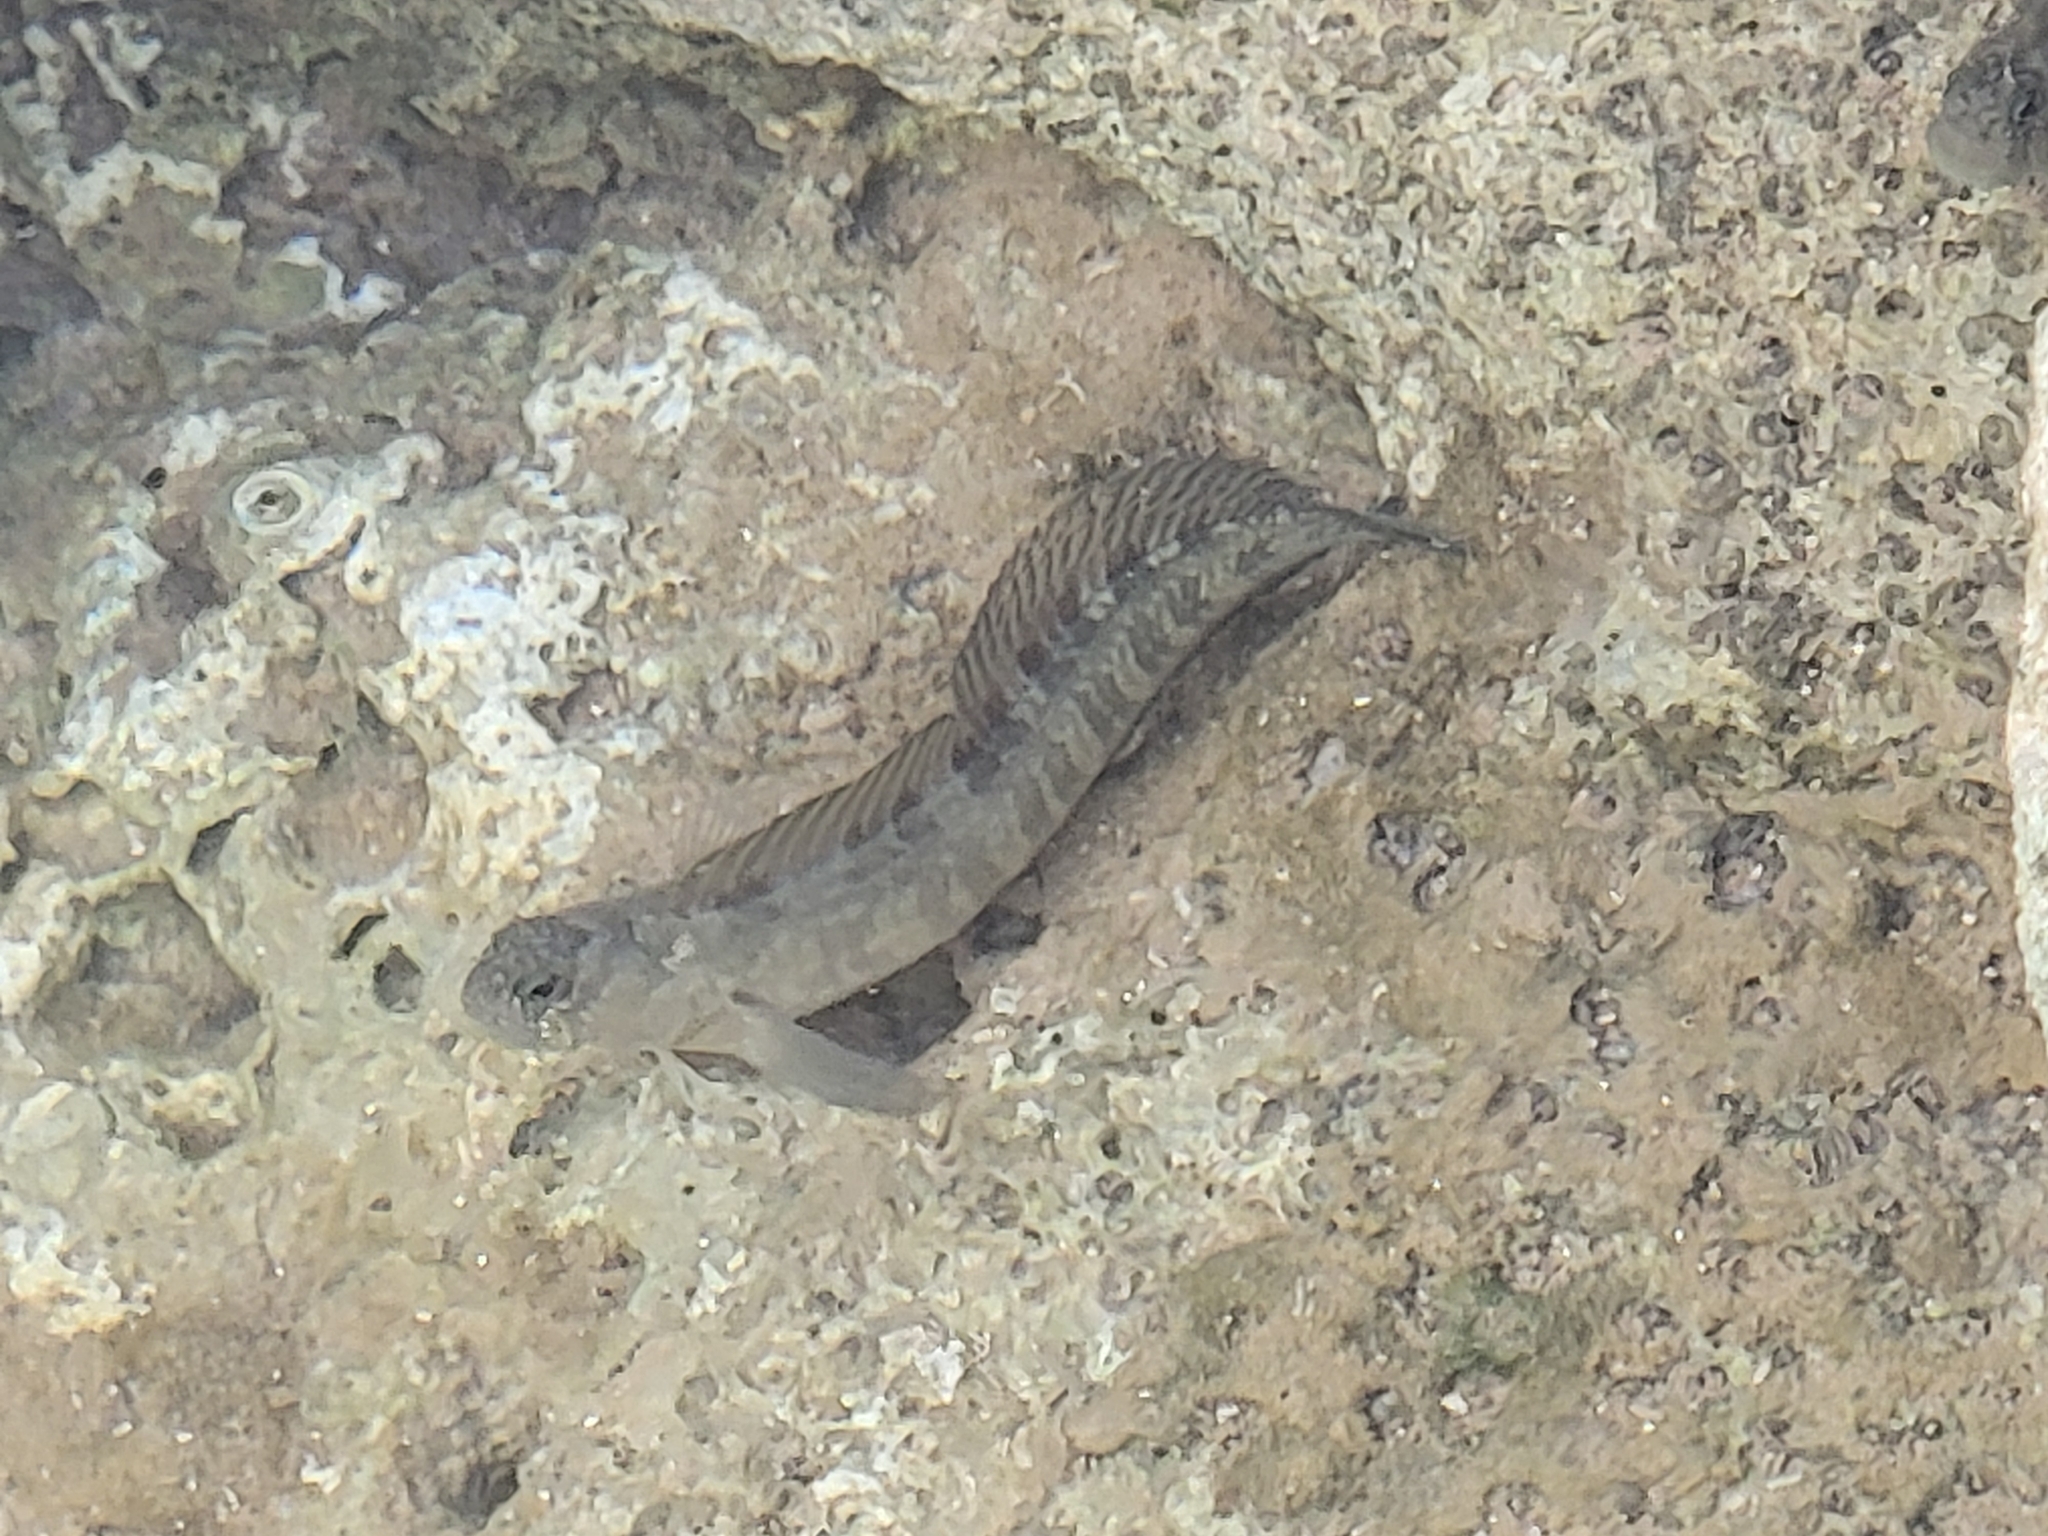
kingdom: Animalia
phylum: Chordata
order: Perciformes
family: Blenniidae
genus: Istiblennius
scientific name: Istiblennius zebra
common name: Zebra blenny
